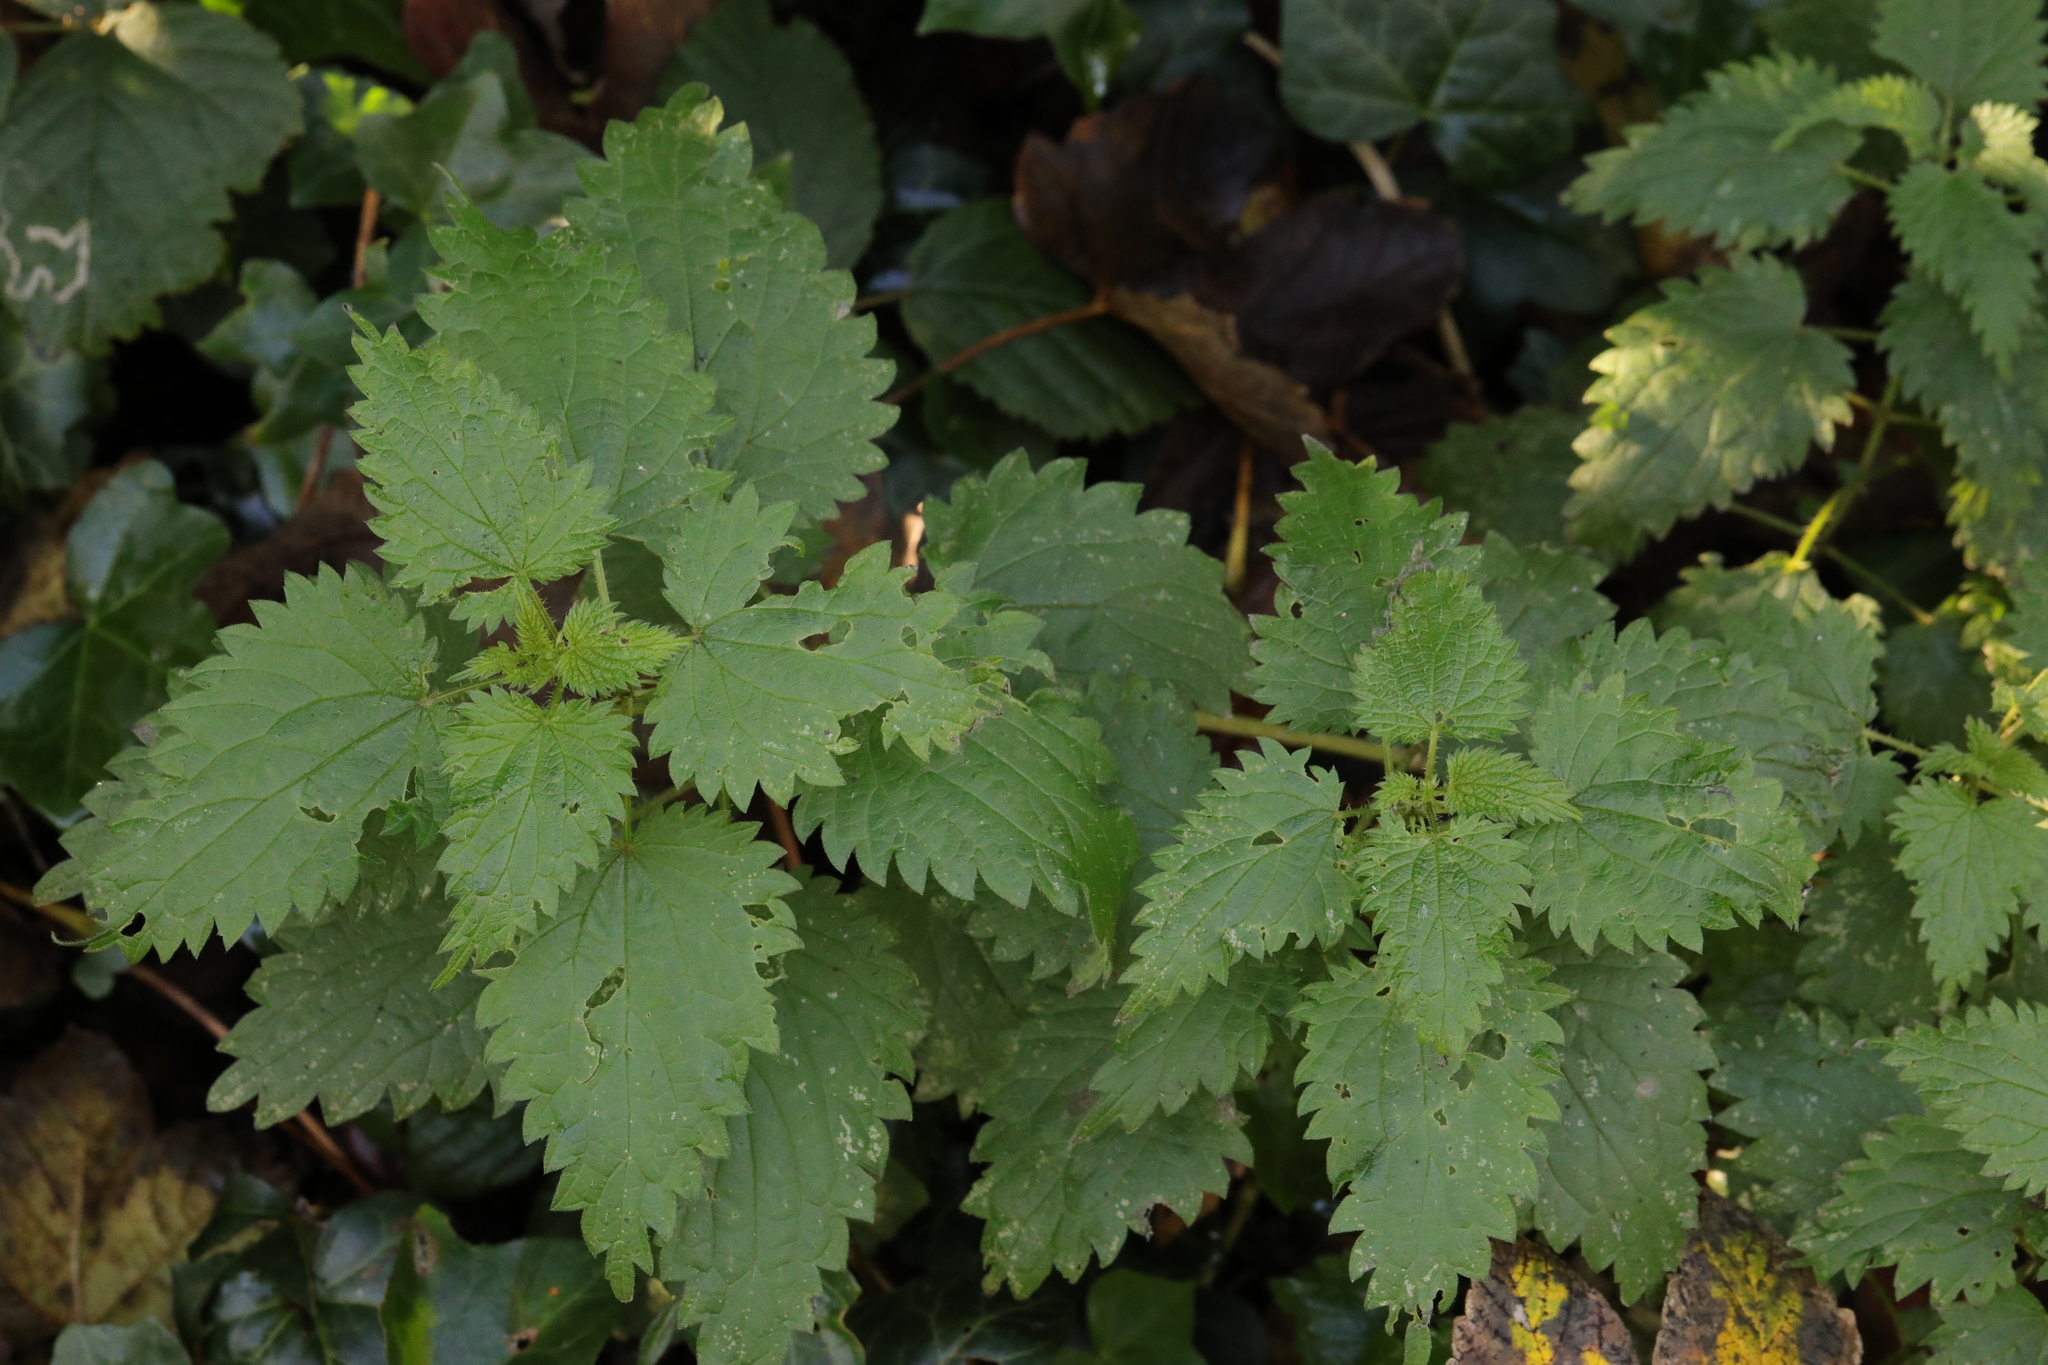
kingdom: Plantae
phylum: Tracheophyta
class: Magnoliopsida
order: Rosales
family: Urticaceae
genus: Urtica
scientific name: Urtica dioica
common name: Common nettle
